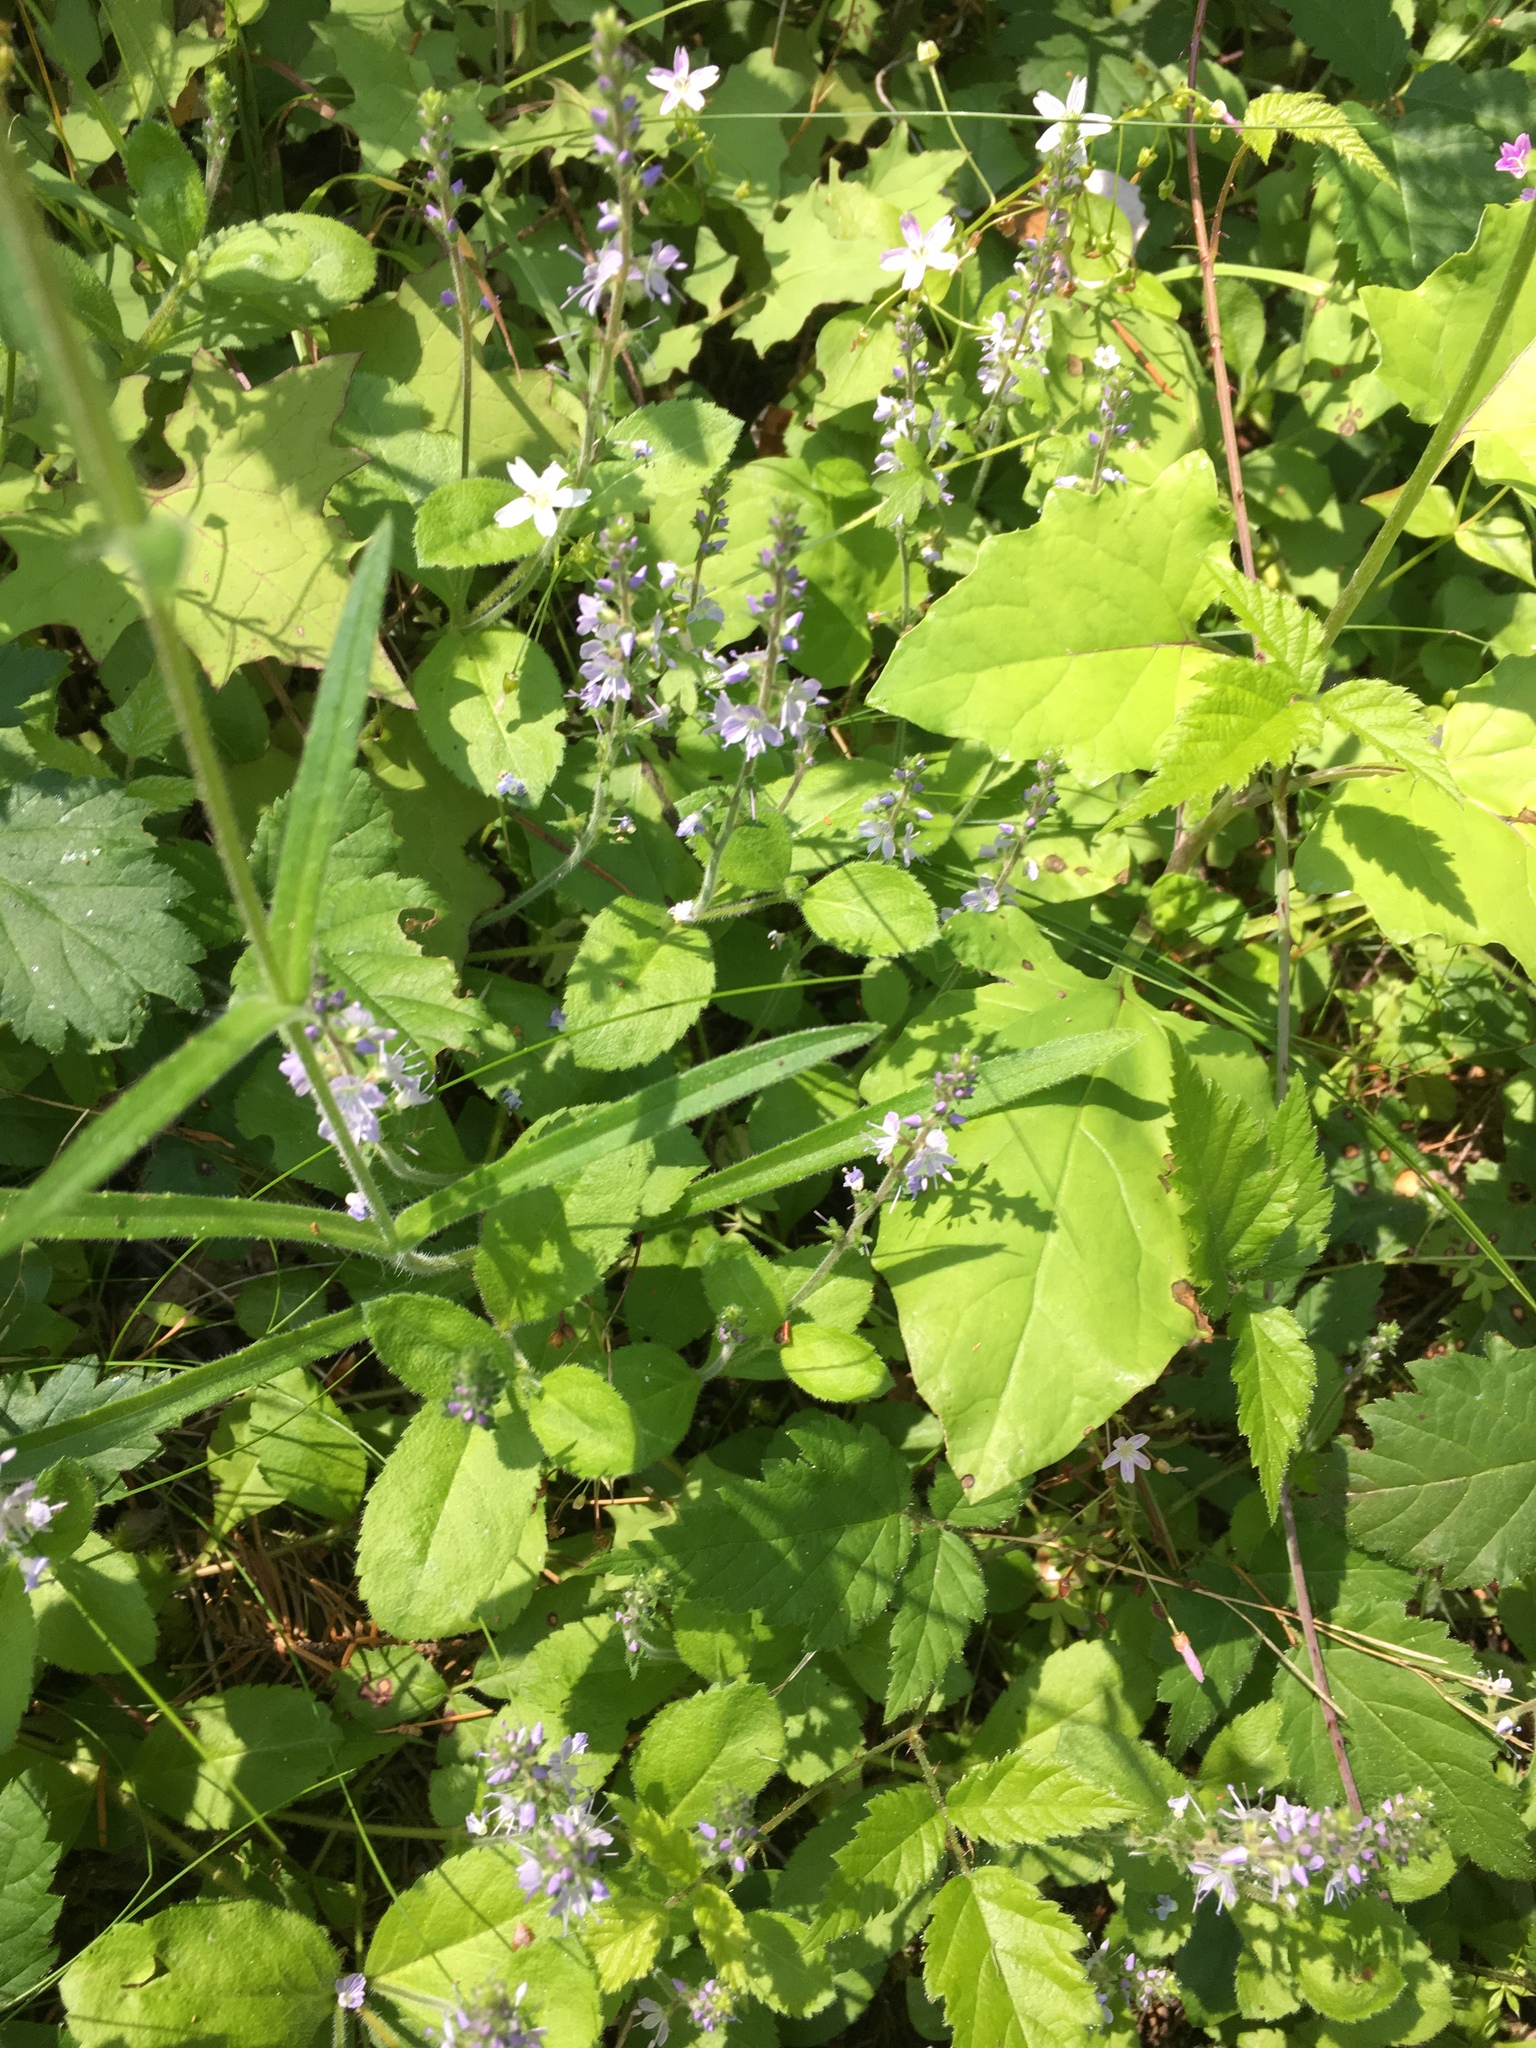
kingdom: Plantae
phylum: Tracheophyta
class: Magnoliopsida
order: Lamiales
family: Plantaginaceae
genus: Veronica
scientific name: Veronica officinalis
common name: Common speedwell
